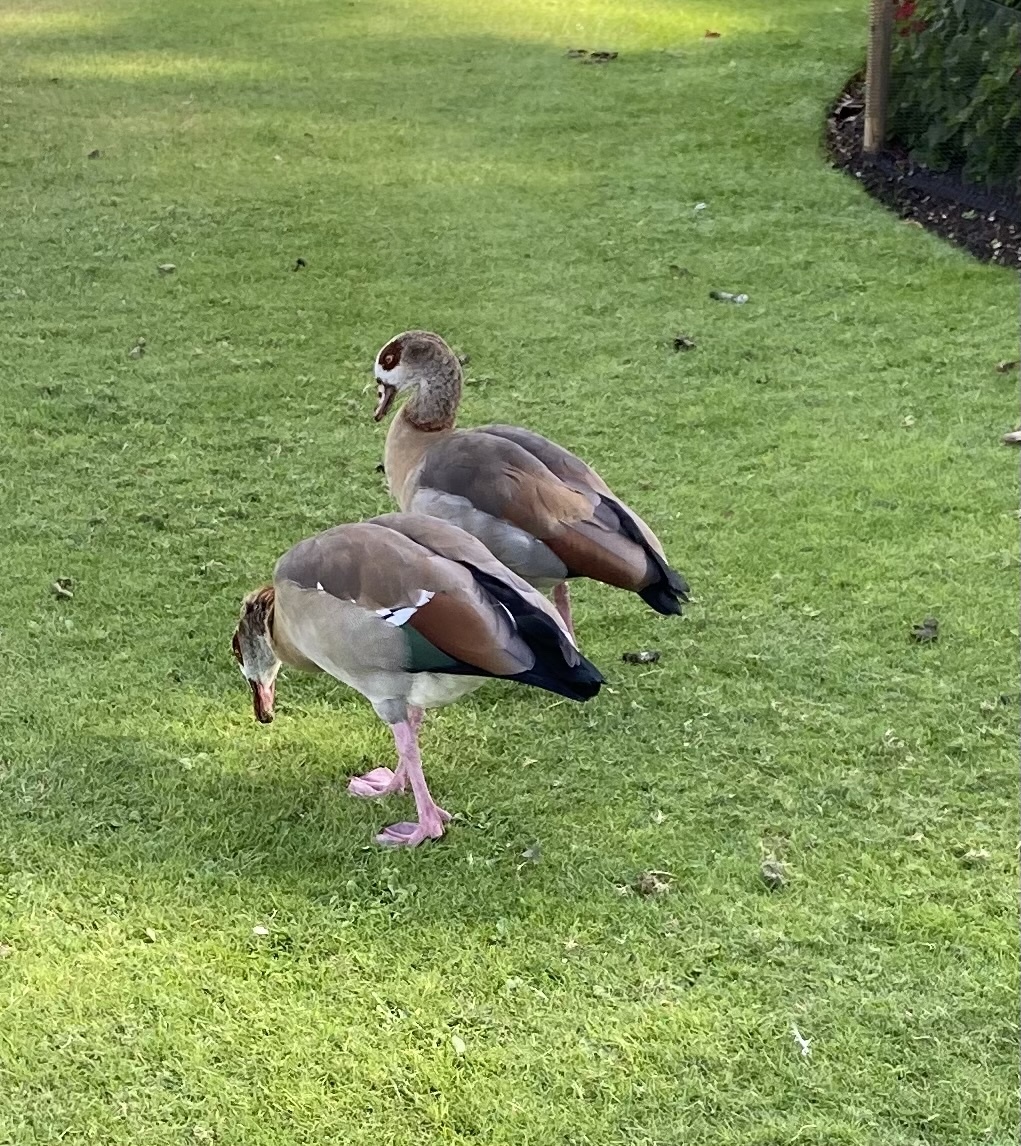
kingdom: Animalia
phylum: Chordata
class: Aves
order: Anseriformes
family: Anatidae
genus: Alopochen
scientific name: Alopochen aegyptiaca
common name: Egyptian goose
